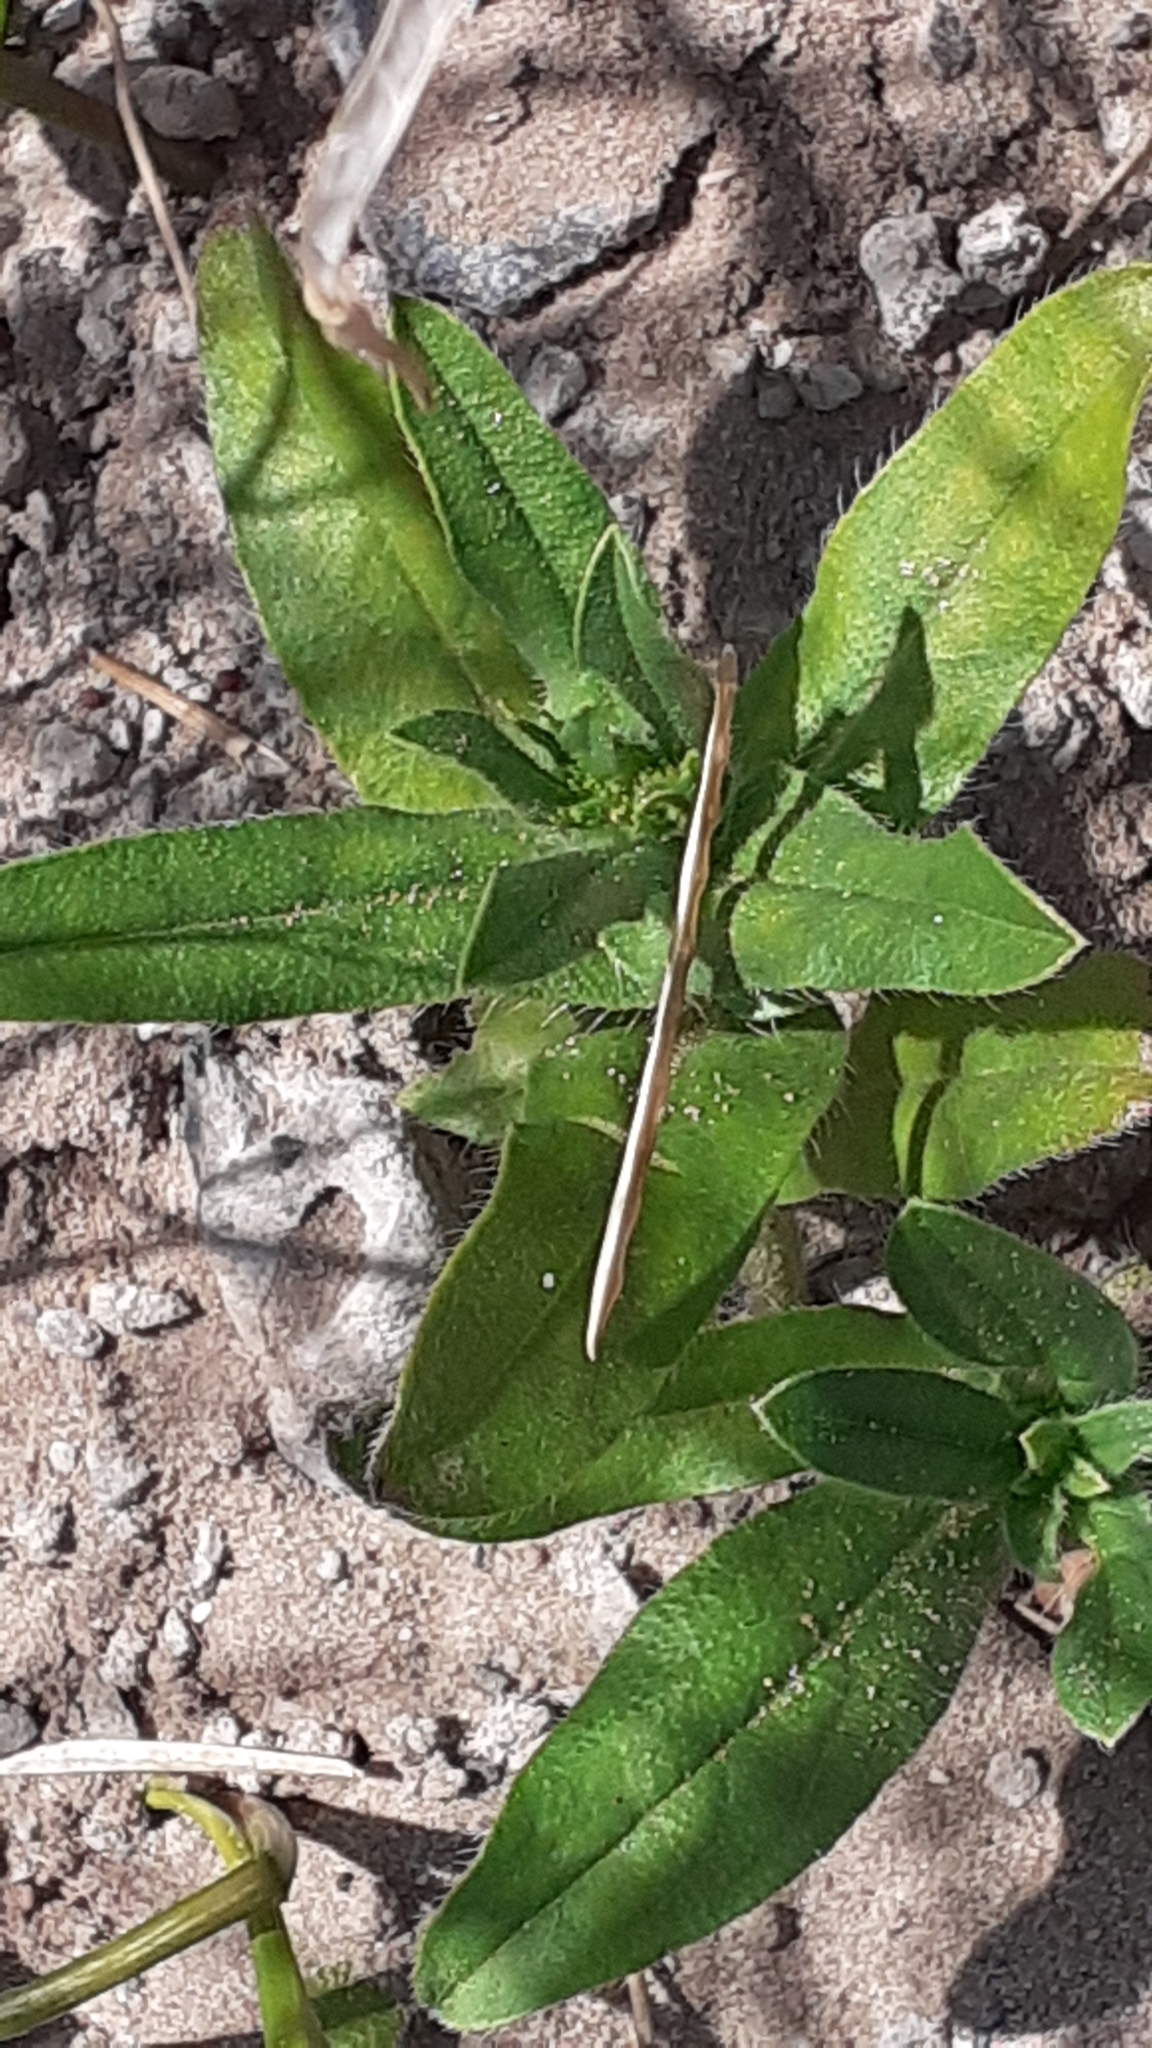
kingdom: Plantae
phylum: Tracheophyta
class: Magnoliopsida
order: Boraginales
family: Boraginaceae
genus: Echium
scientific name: Echium plantagineum
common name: Purple viper's-bugloss
